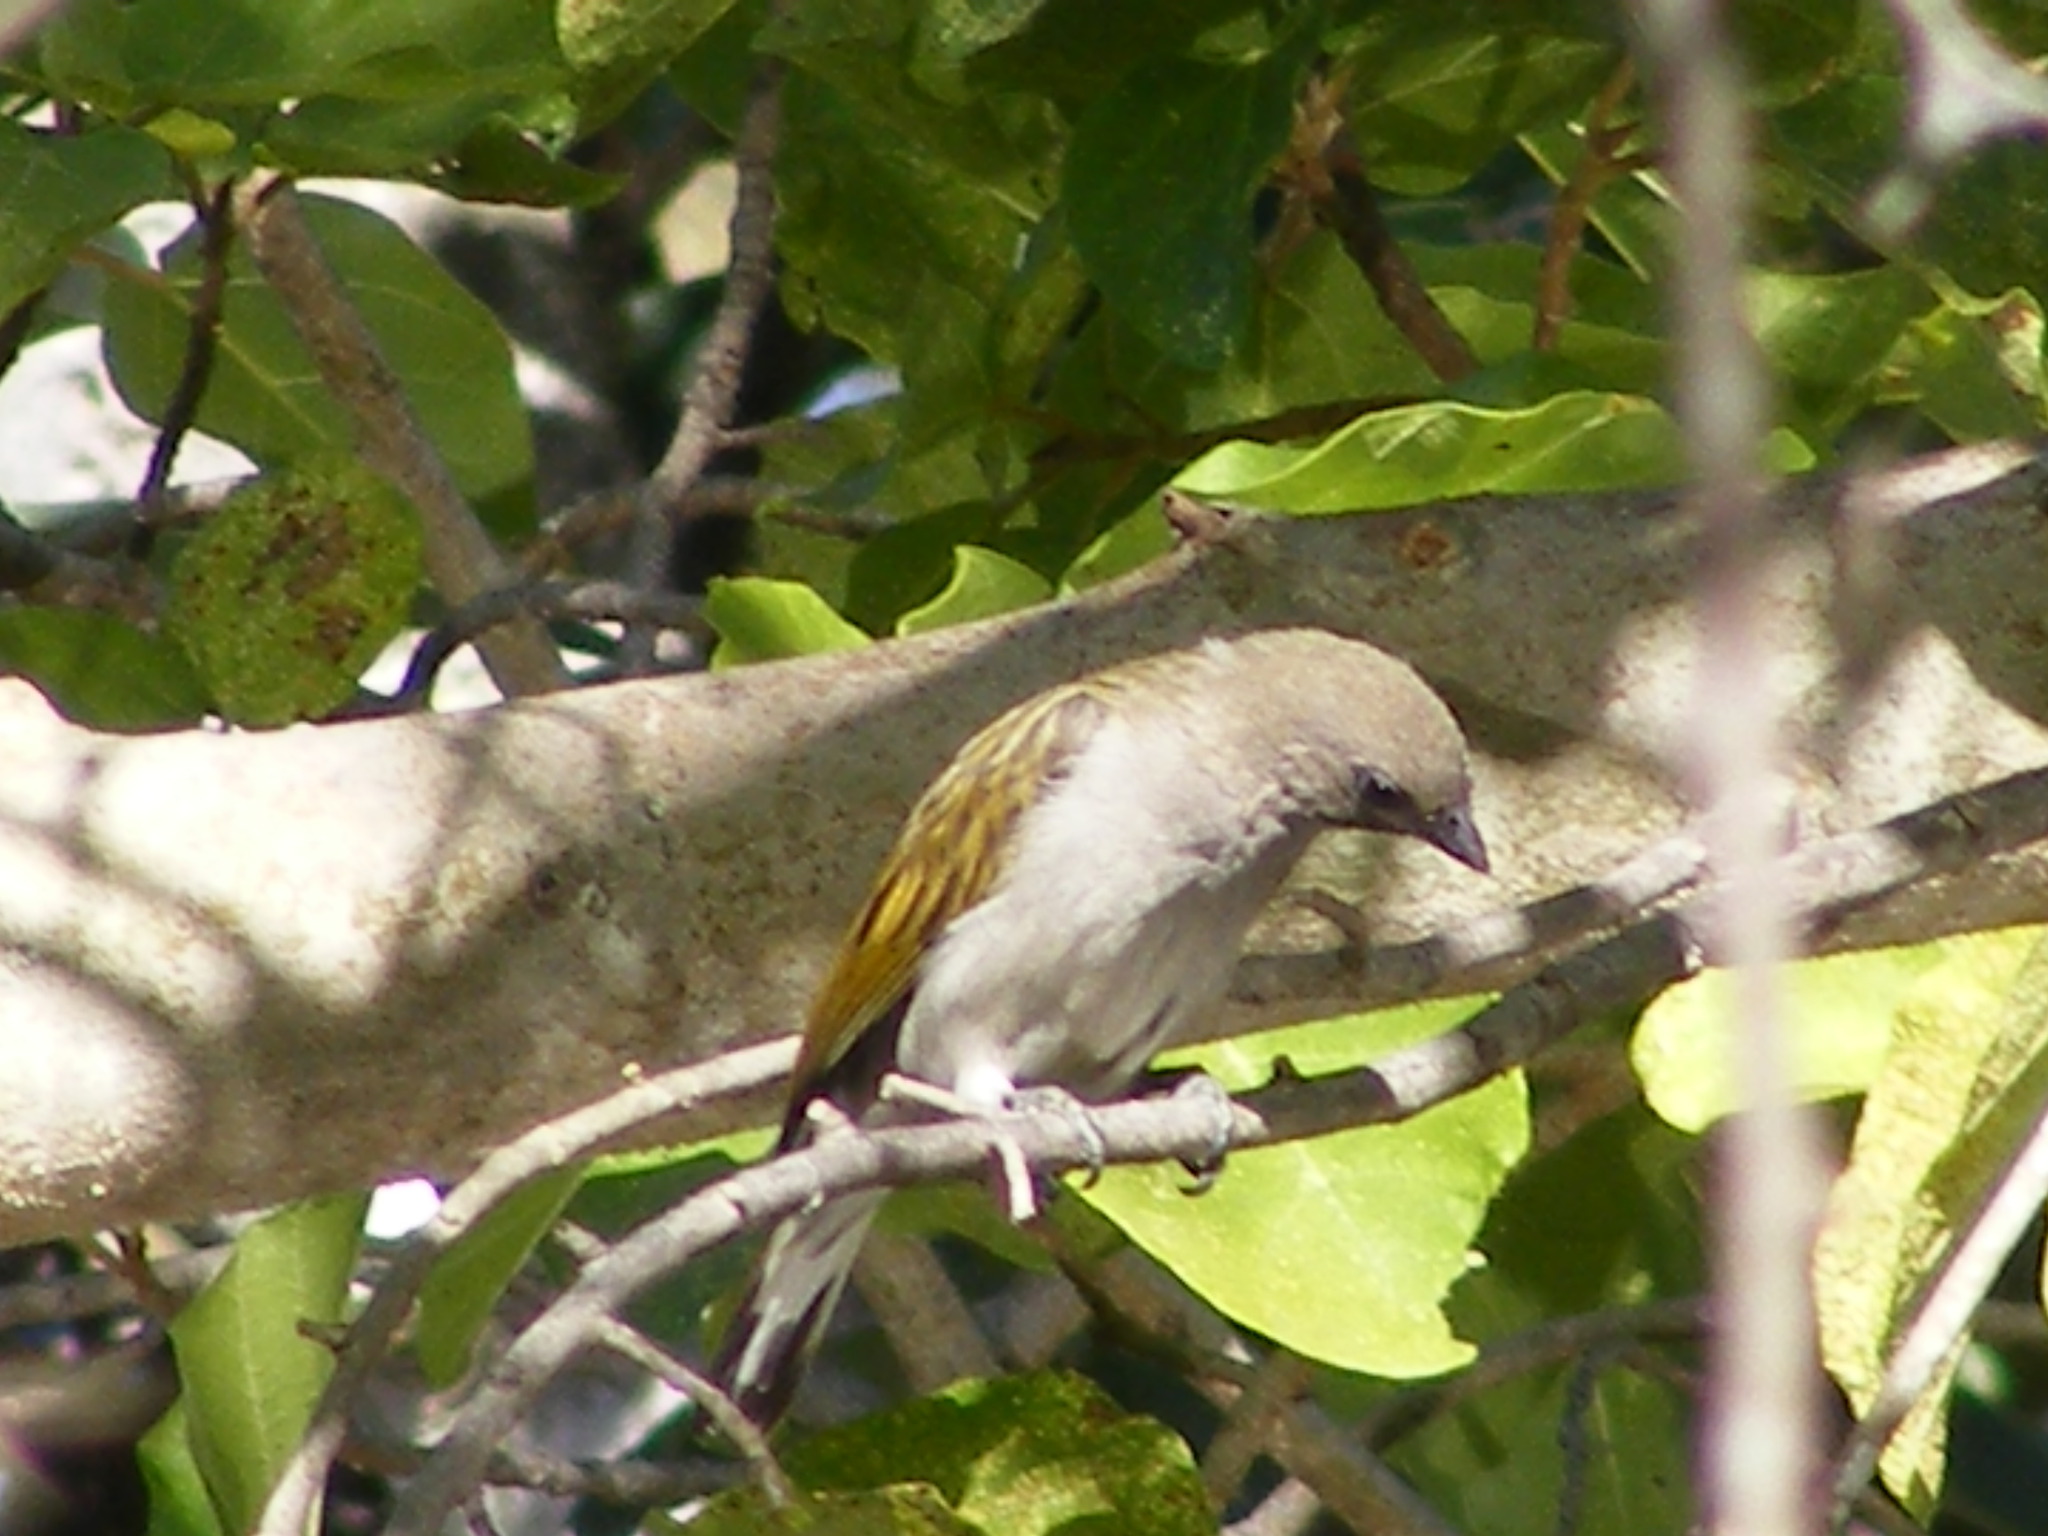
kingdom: Animalia
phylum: Chordata
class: Aves
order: Piciformes
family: Indicatoridae
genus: Indicator
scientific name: Indicator minor
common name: Lesser honeyguide
